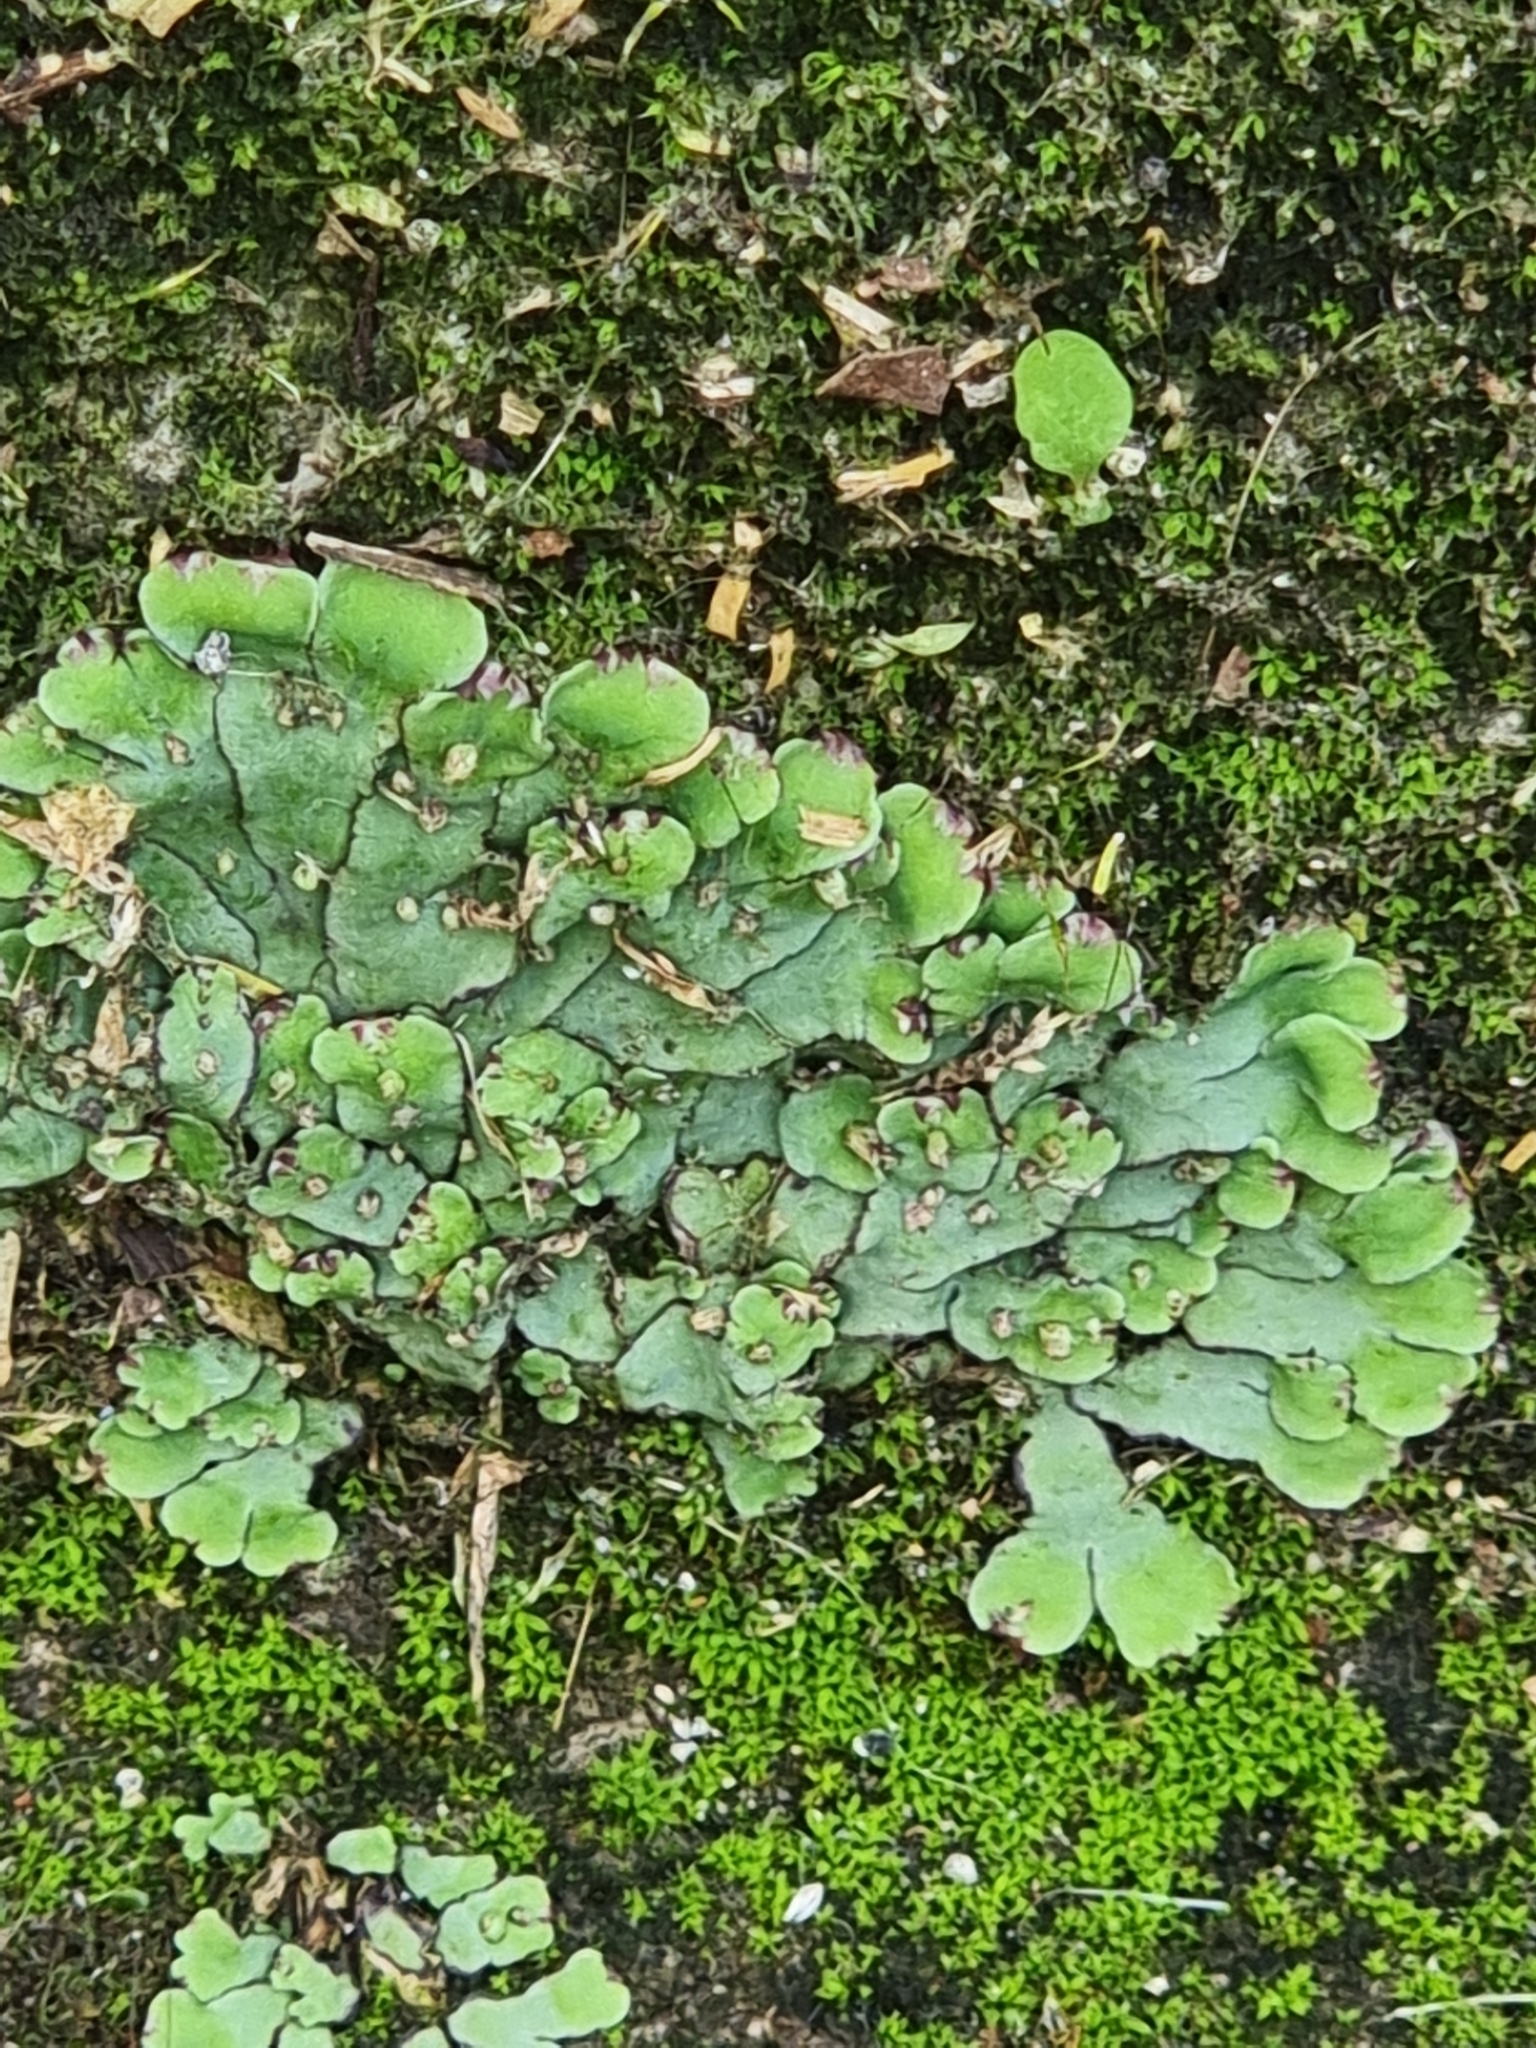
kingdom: Plantae
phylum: Marchantiophyta
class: Marchantiopsida
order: Marchantiales
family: Aytoniaceae
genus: Plagiochasma
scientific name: Plagiochasma rupestre
